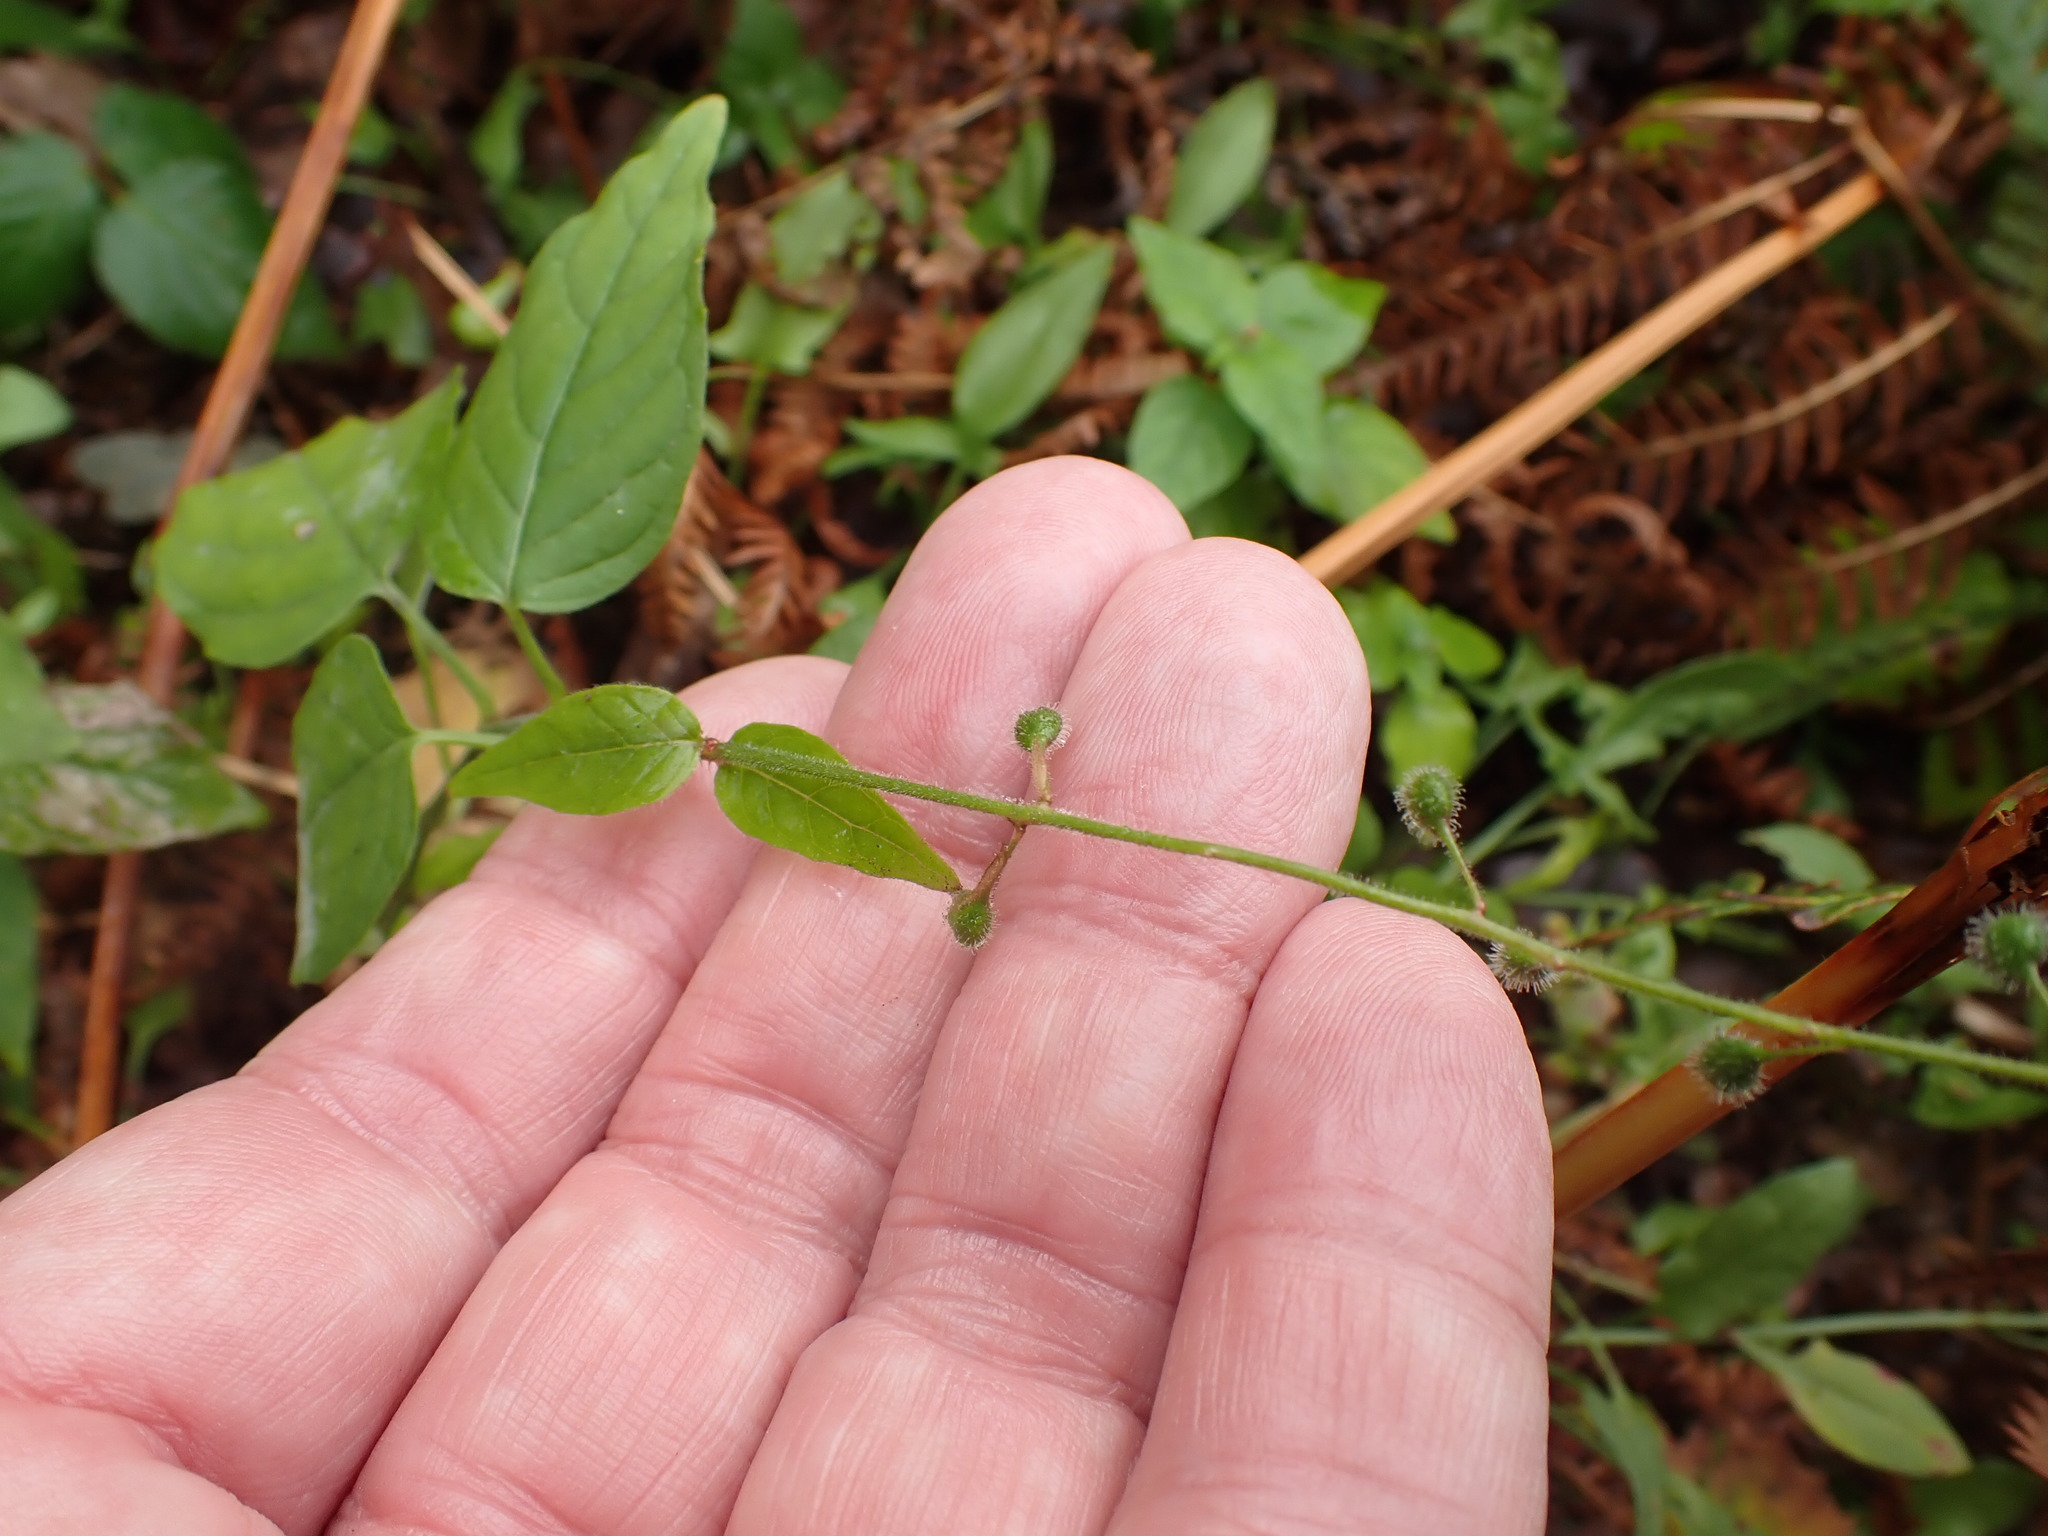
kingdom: Plantae
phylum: Tracheophyta
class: Magnoliopsida
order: Myrtales
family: Onagraceae
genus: Circaea
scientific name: Circaea lutetiana
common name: Enchanter's-nightshade
